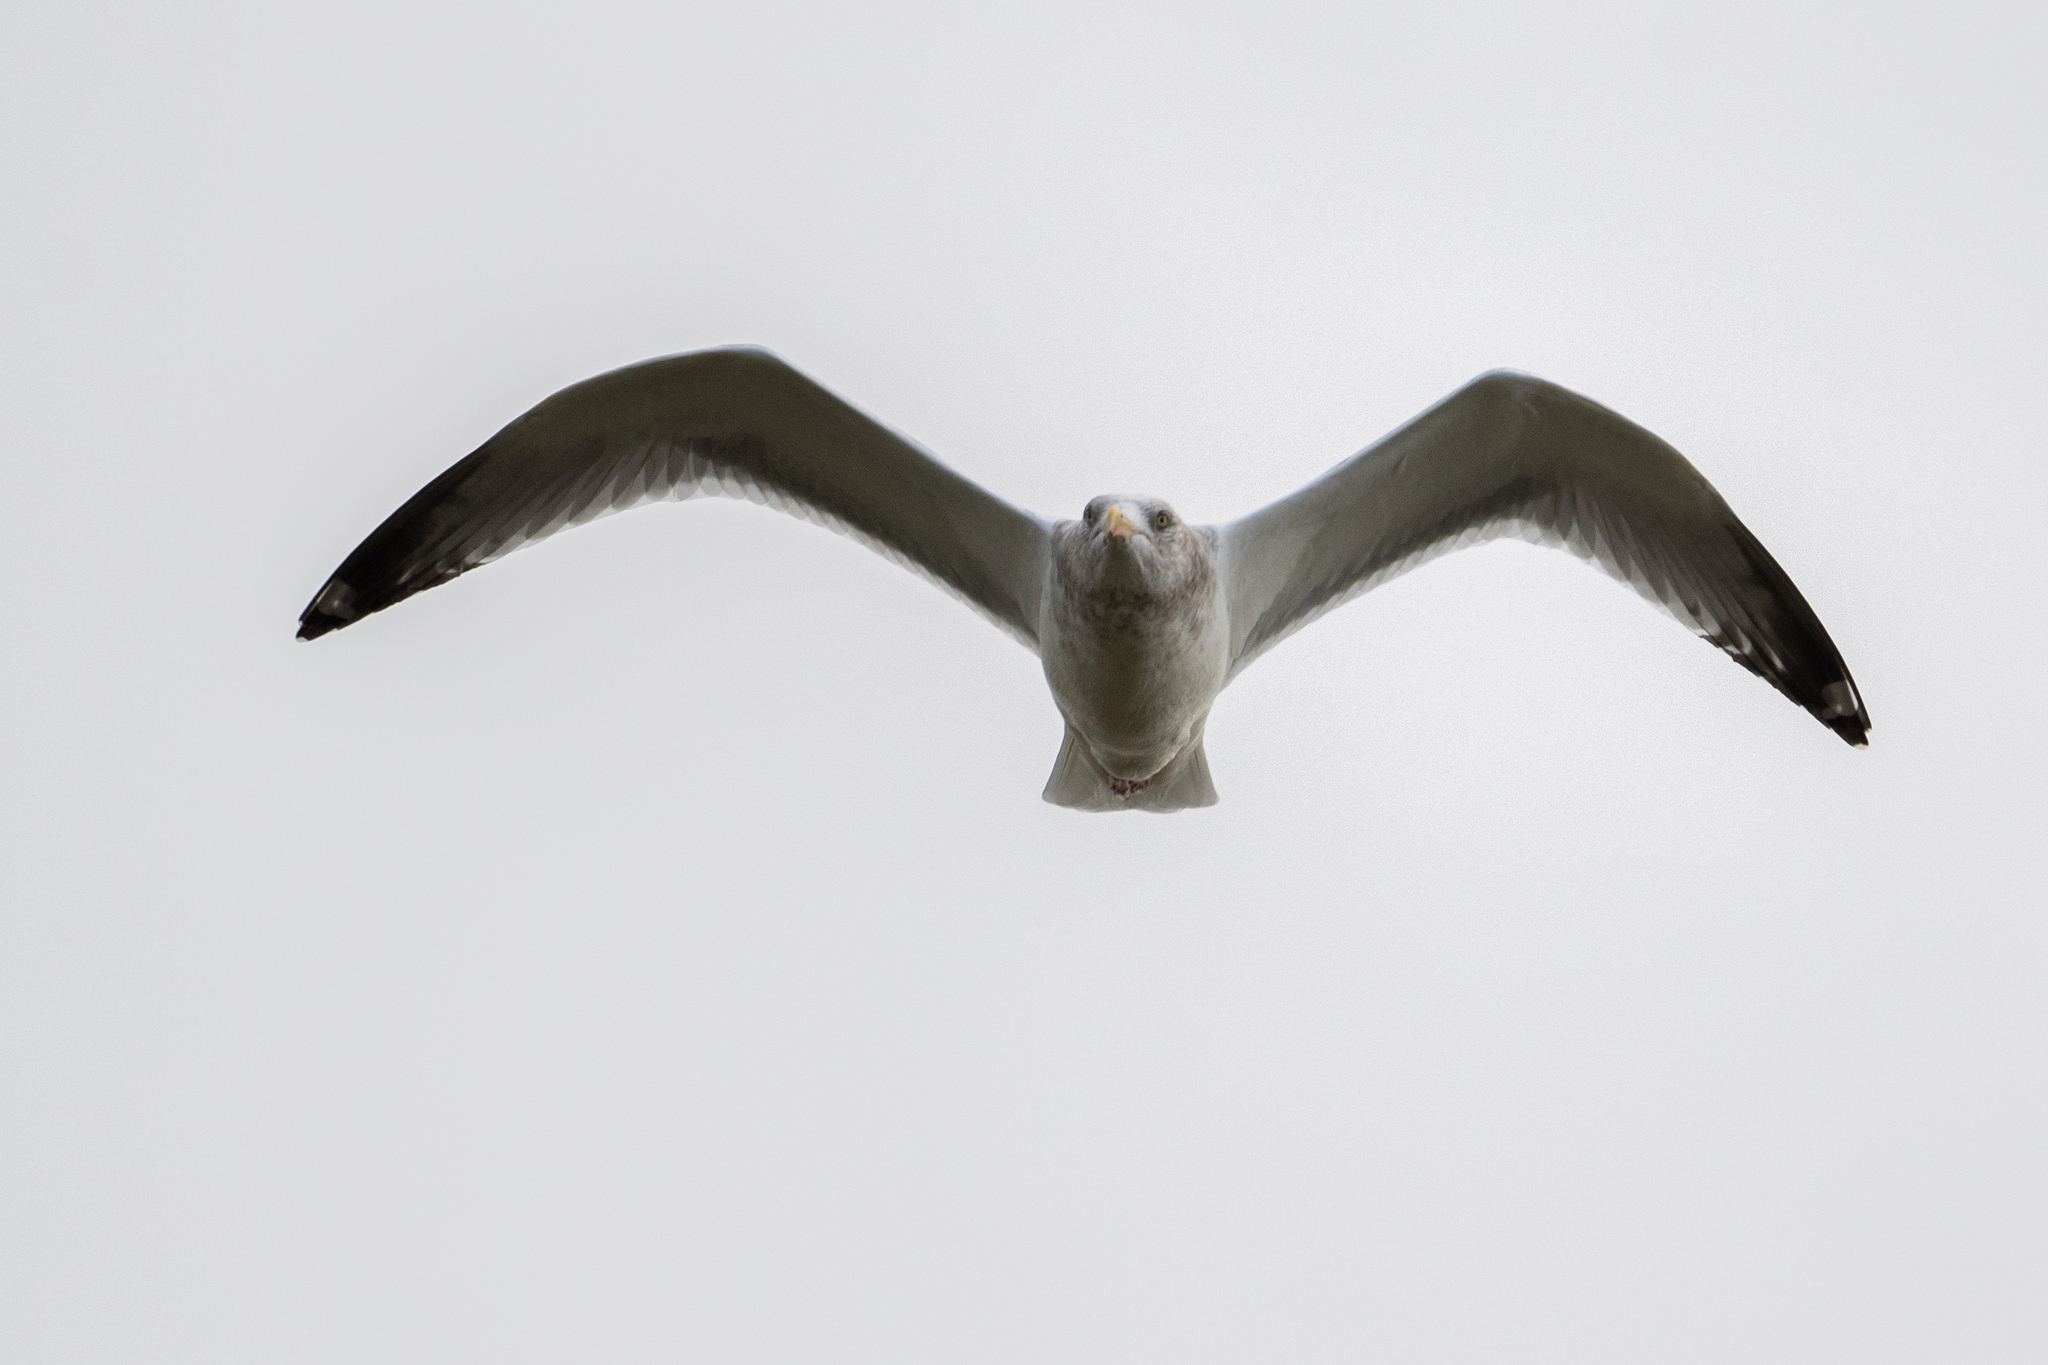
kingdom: Animalia
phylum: Chordata
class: Aves
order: Charadriiformes
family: Laridae
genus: Larus
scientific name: Larus smithsonianus
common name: American herring gull
